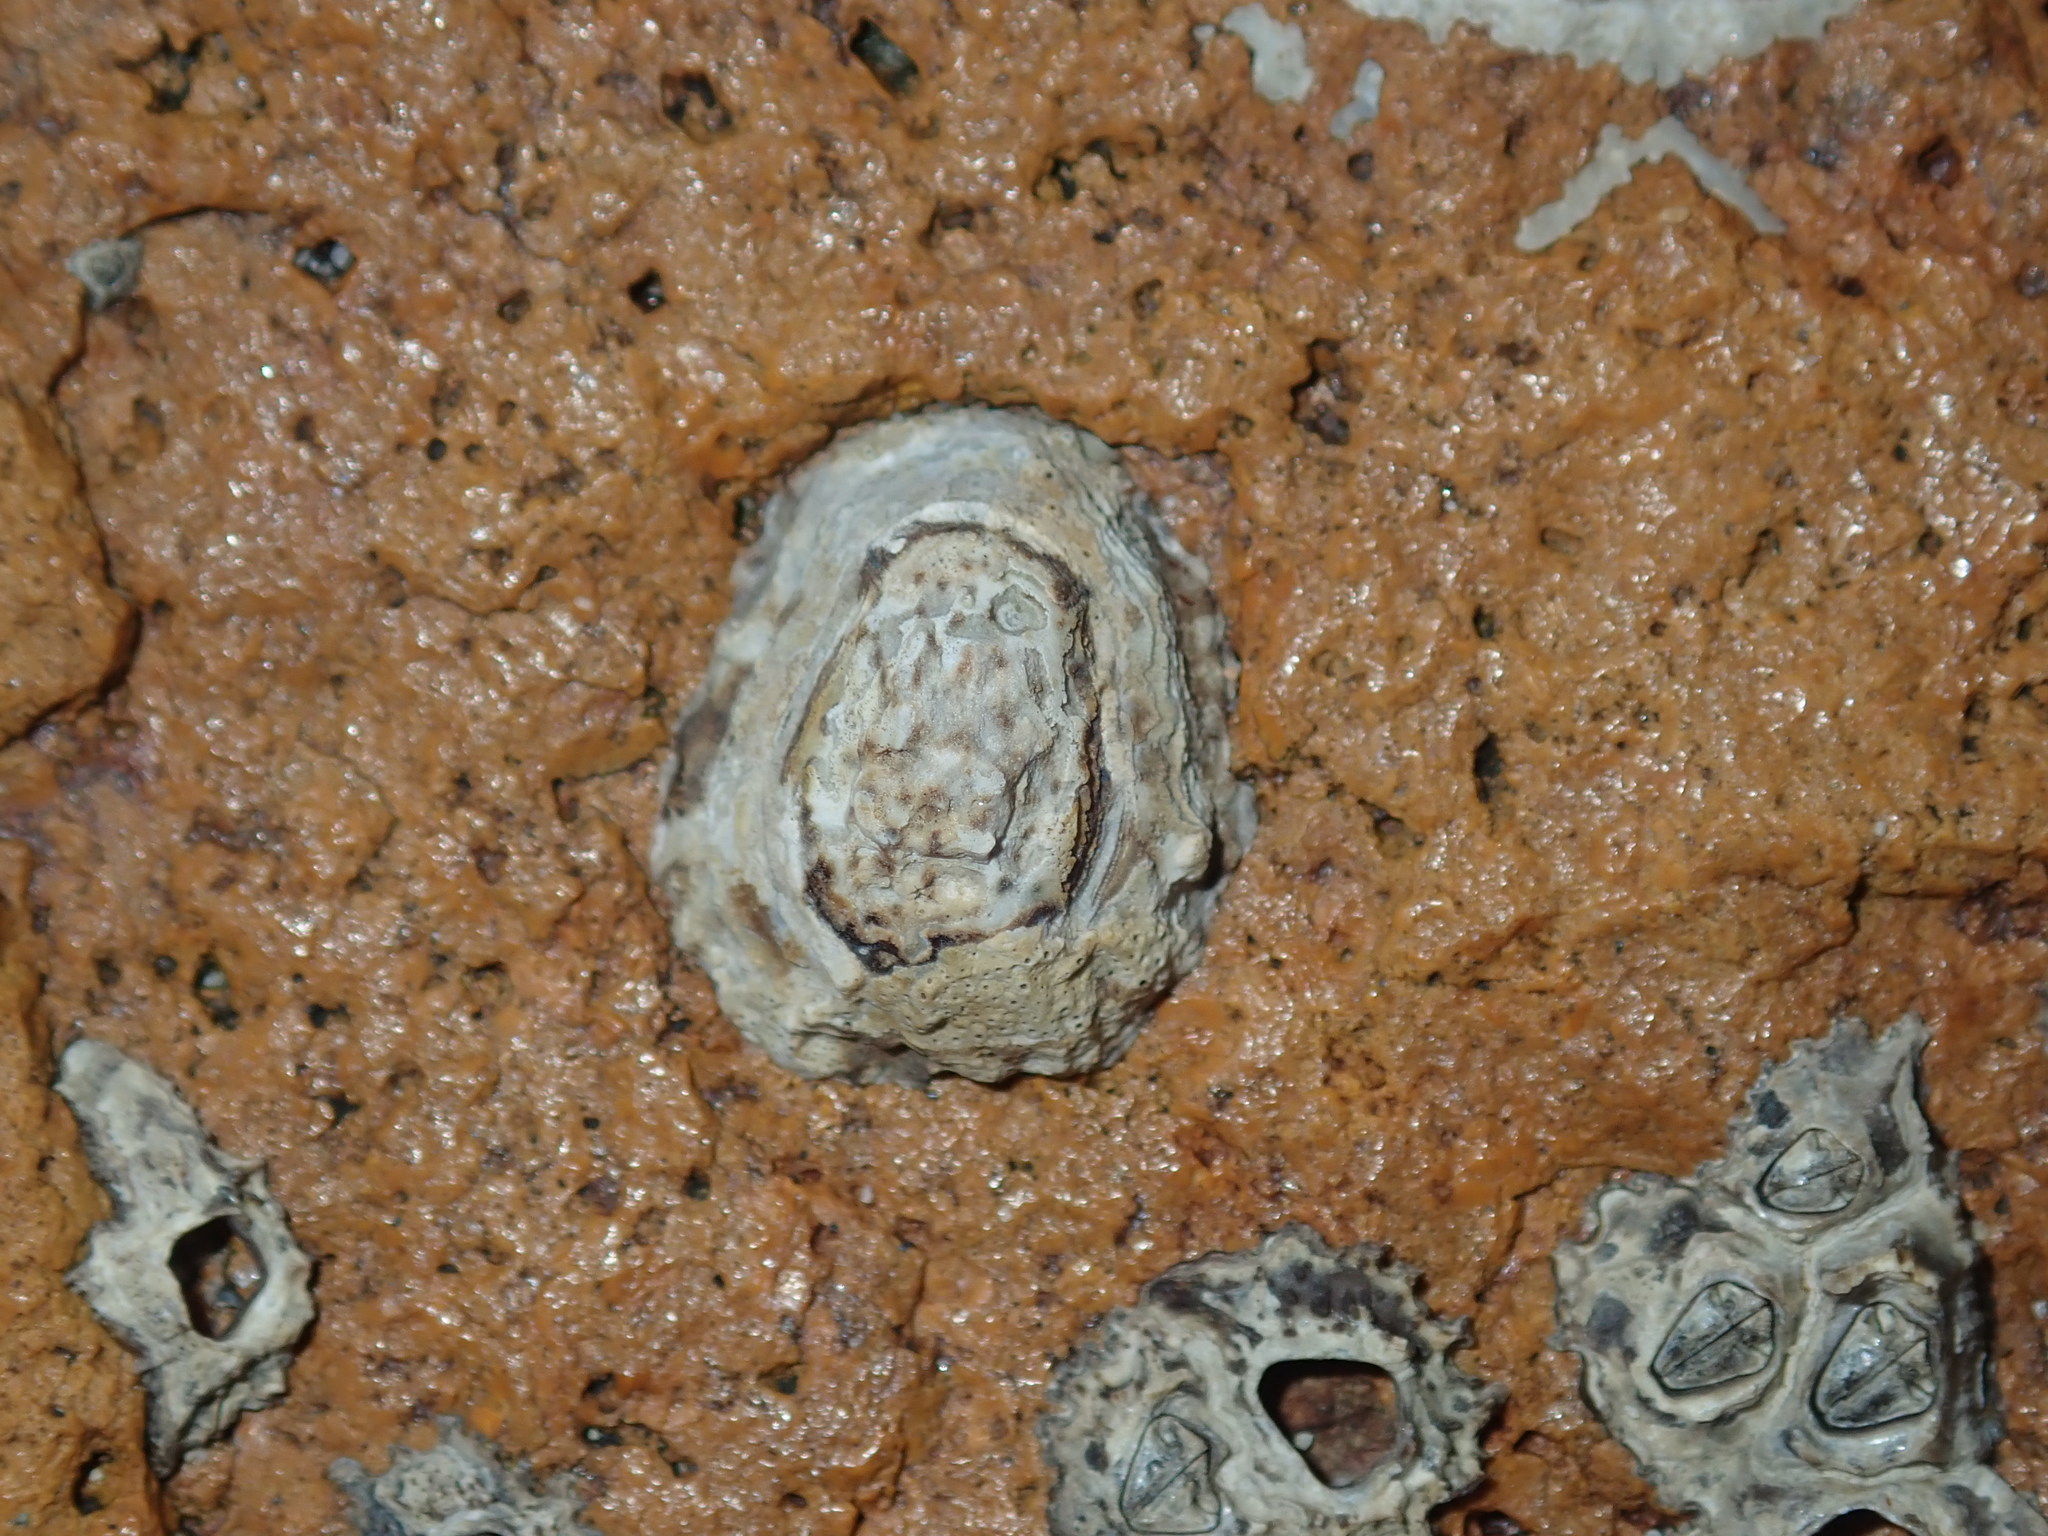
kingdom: Animalia
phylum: Arthropoda
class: Maxillopoda
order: Sessilia
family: Chthamalidae
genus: Chamaesipho
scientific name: Chamaesipho tasmanica
